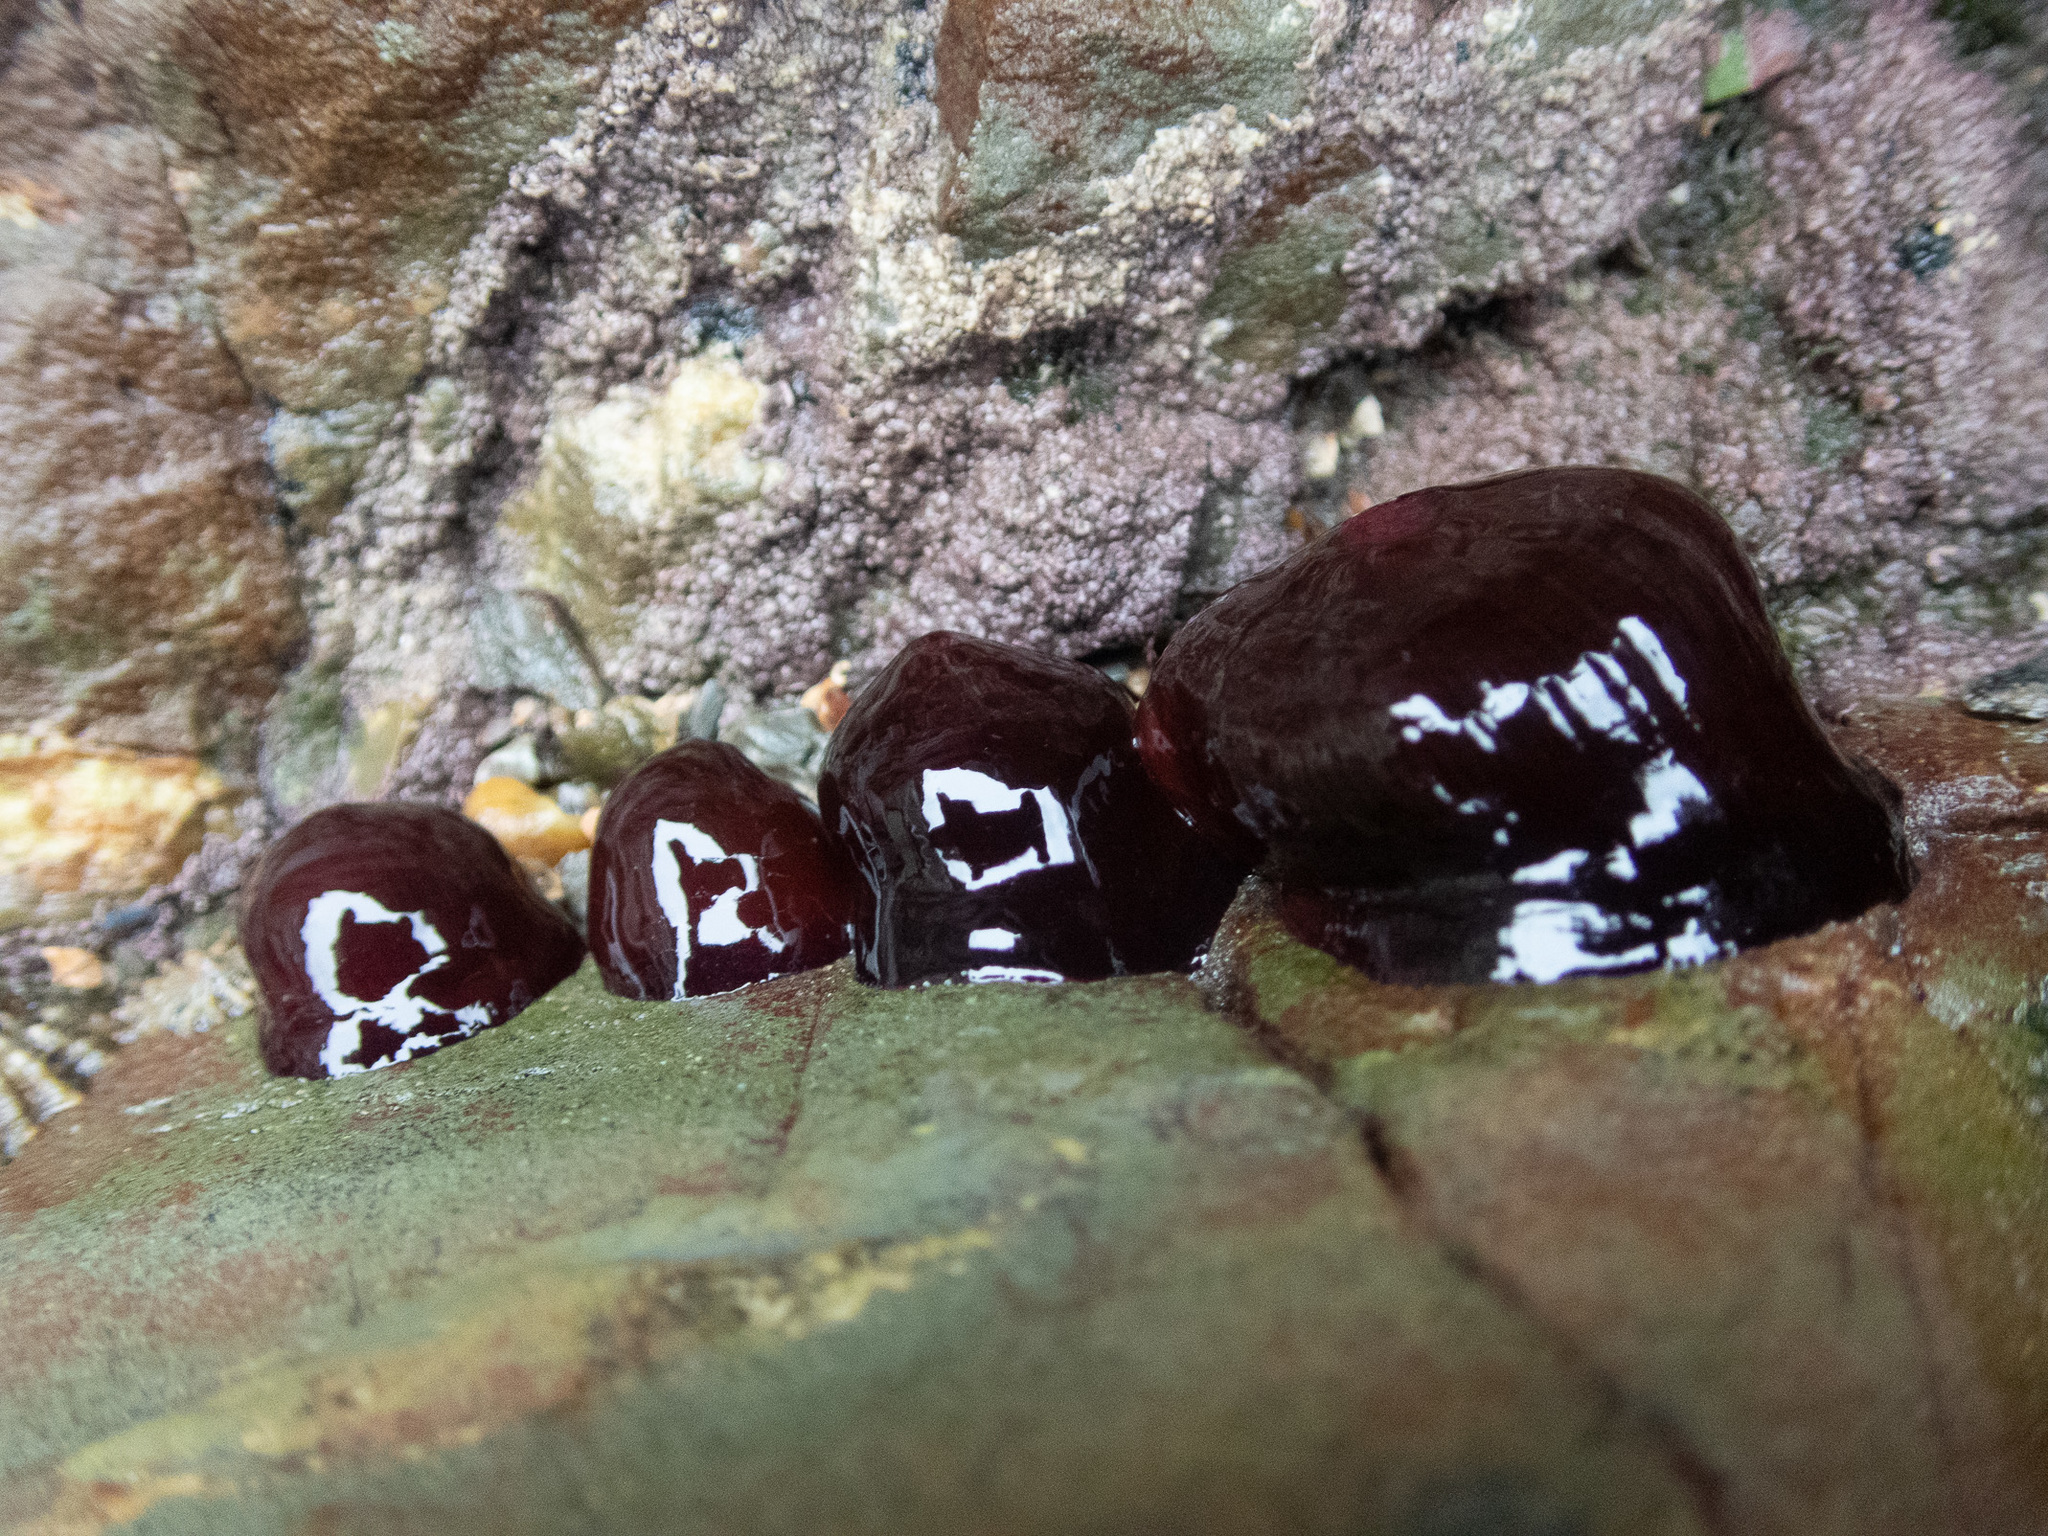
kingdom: Animalia
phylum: Cnidaria
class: Anthozoa
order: Actiniaria
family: Actiniidae
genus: Actinia
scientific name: Actinia equina
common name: Beadlet anemone
